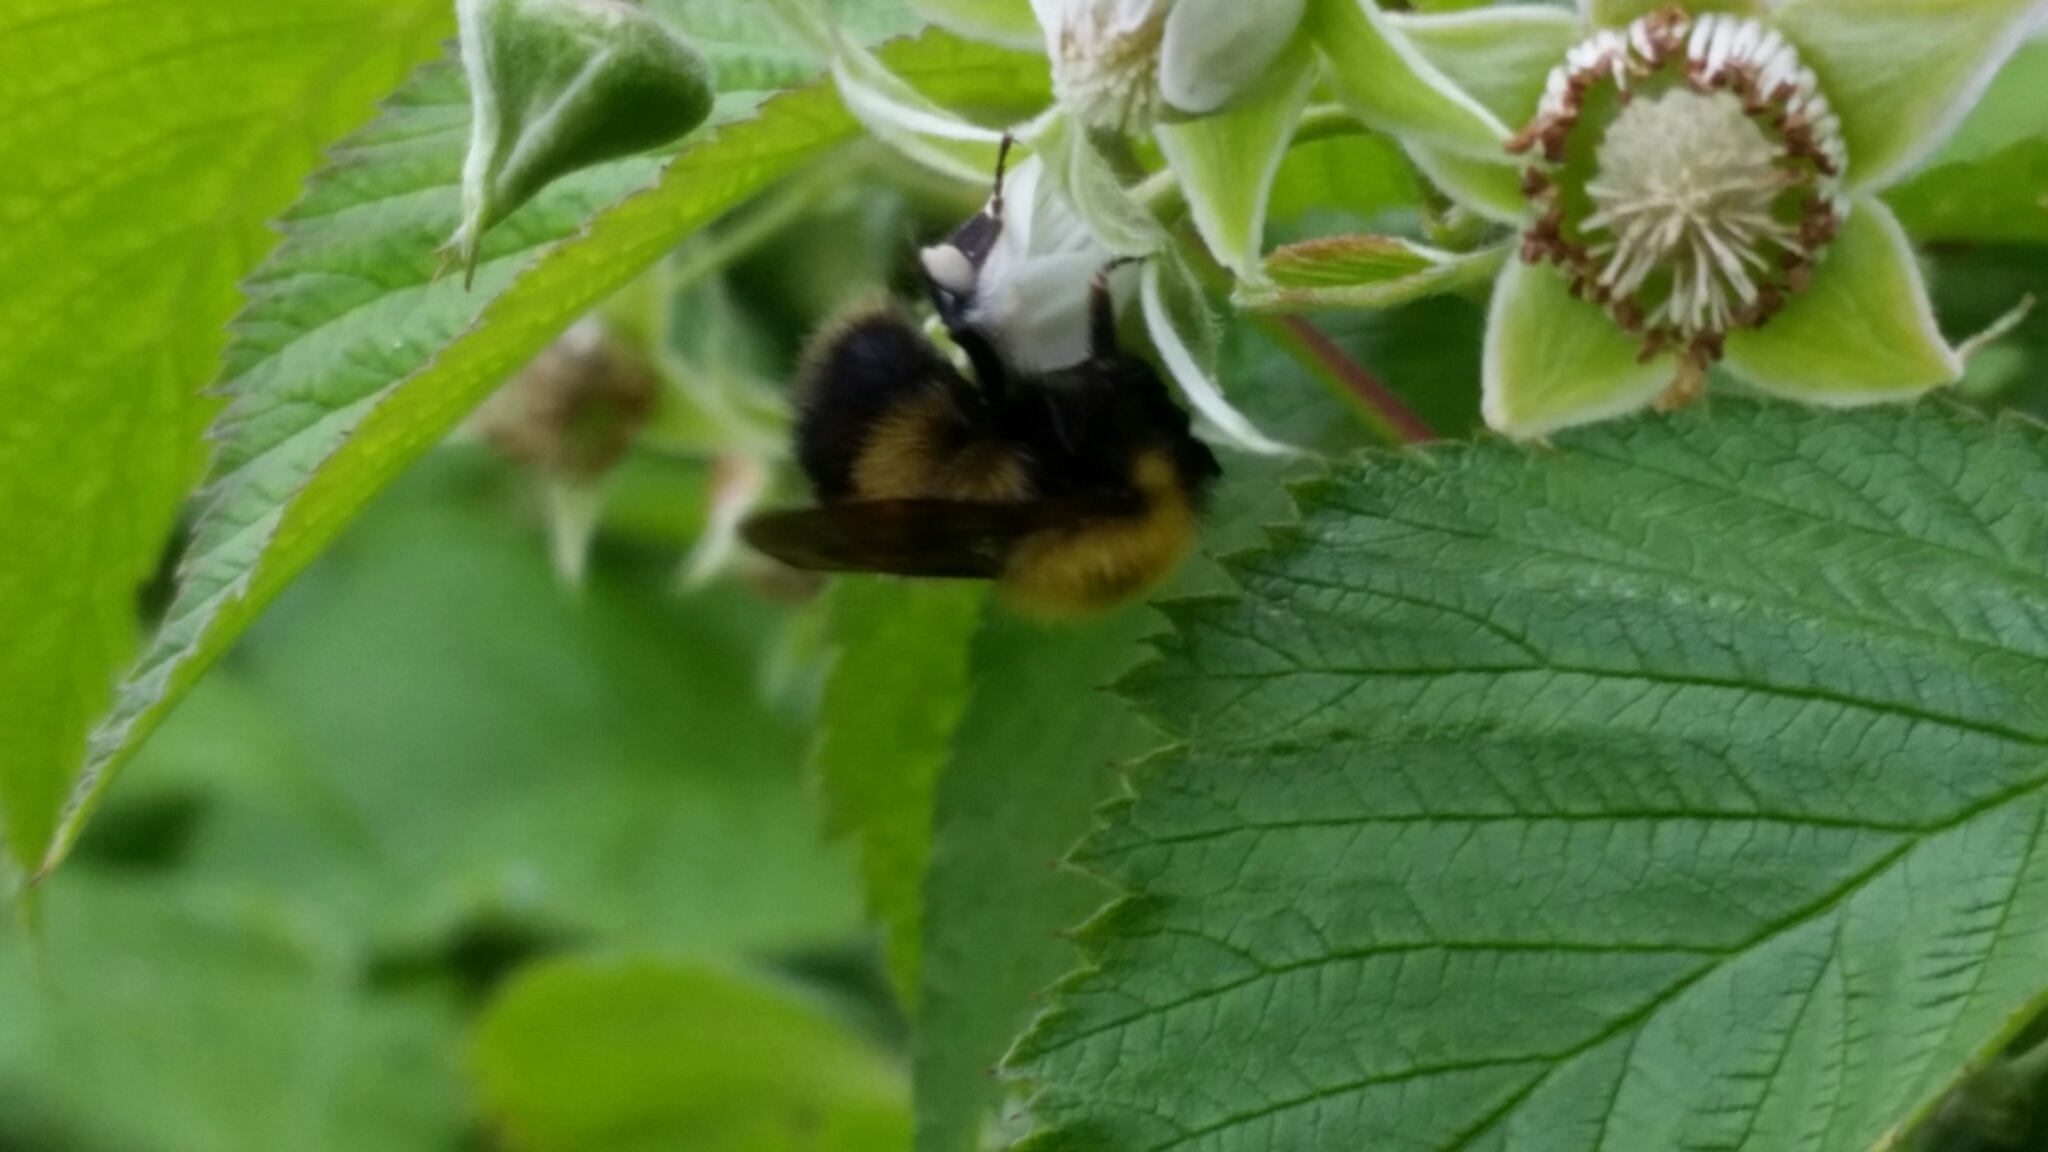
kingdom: Animalia
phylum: Arthropoda
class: Insecta
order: Hymenoptera
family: Apidae
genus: Bombus
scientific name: Bombus perplexus
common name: Confusing bumble bee
